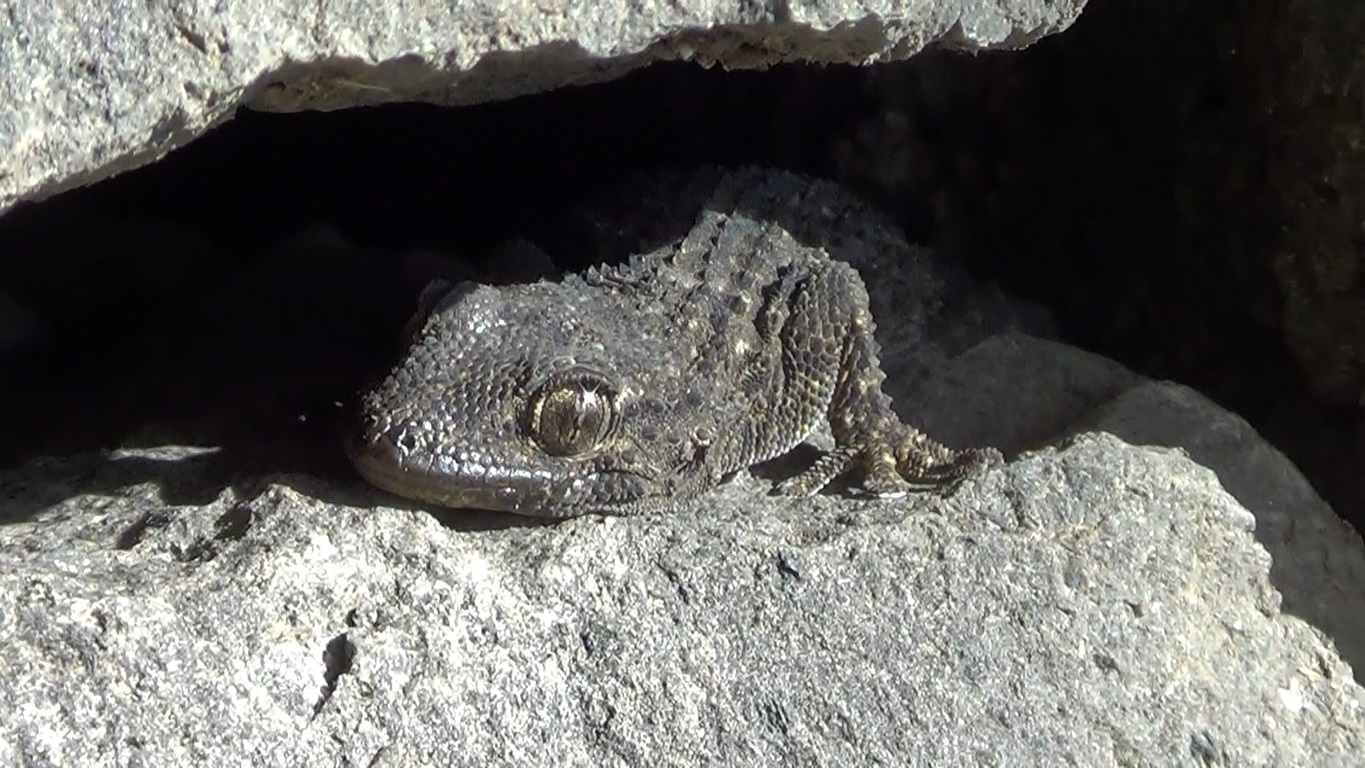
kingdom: Animalia
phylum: Chordata
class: Squamata
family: Phyllodactylidae
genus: Tarentola
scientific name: Tarentola mauritanica
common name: Moorish gecko
